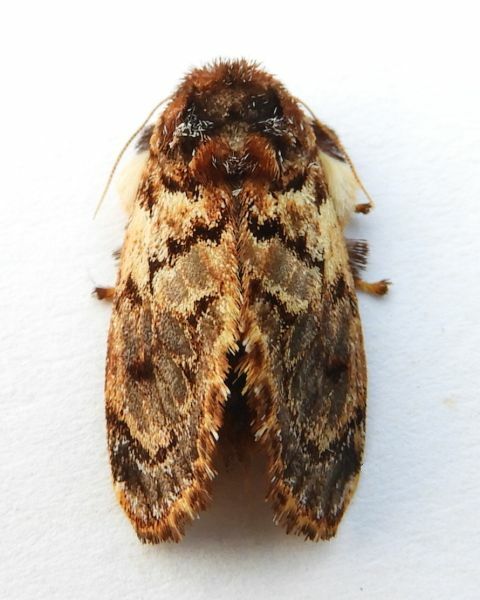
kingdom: Animalia
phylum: Arthropoda
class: Insecta
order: Lepidoptera
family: Limacodidae
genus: Phobetron
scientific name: Phobetron pithecium
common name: Hag moth
